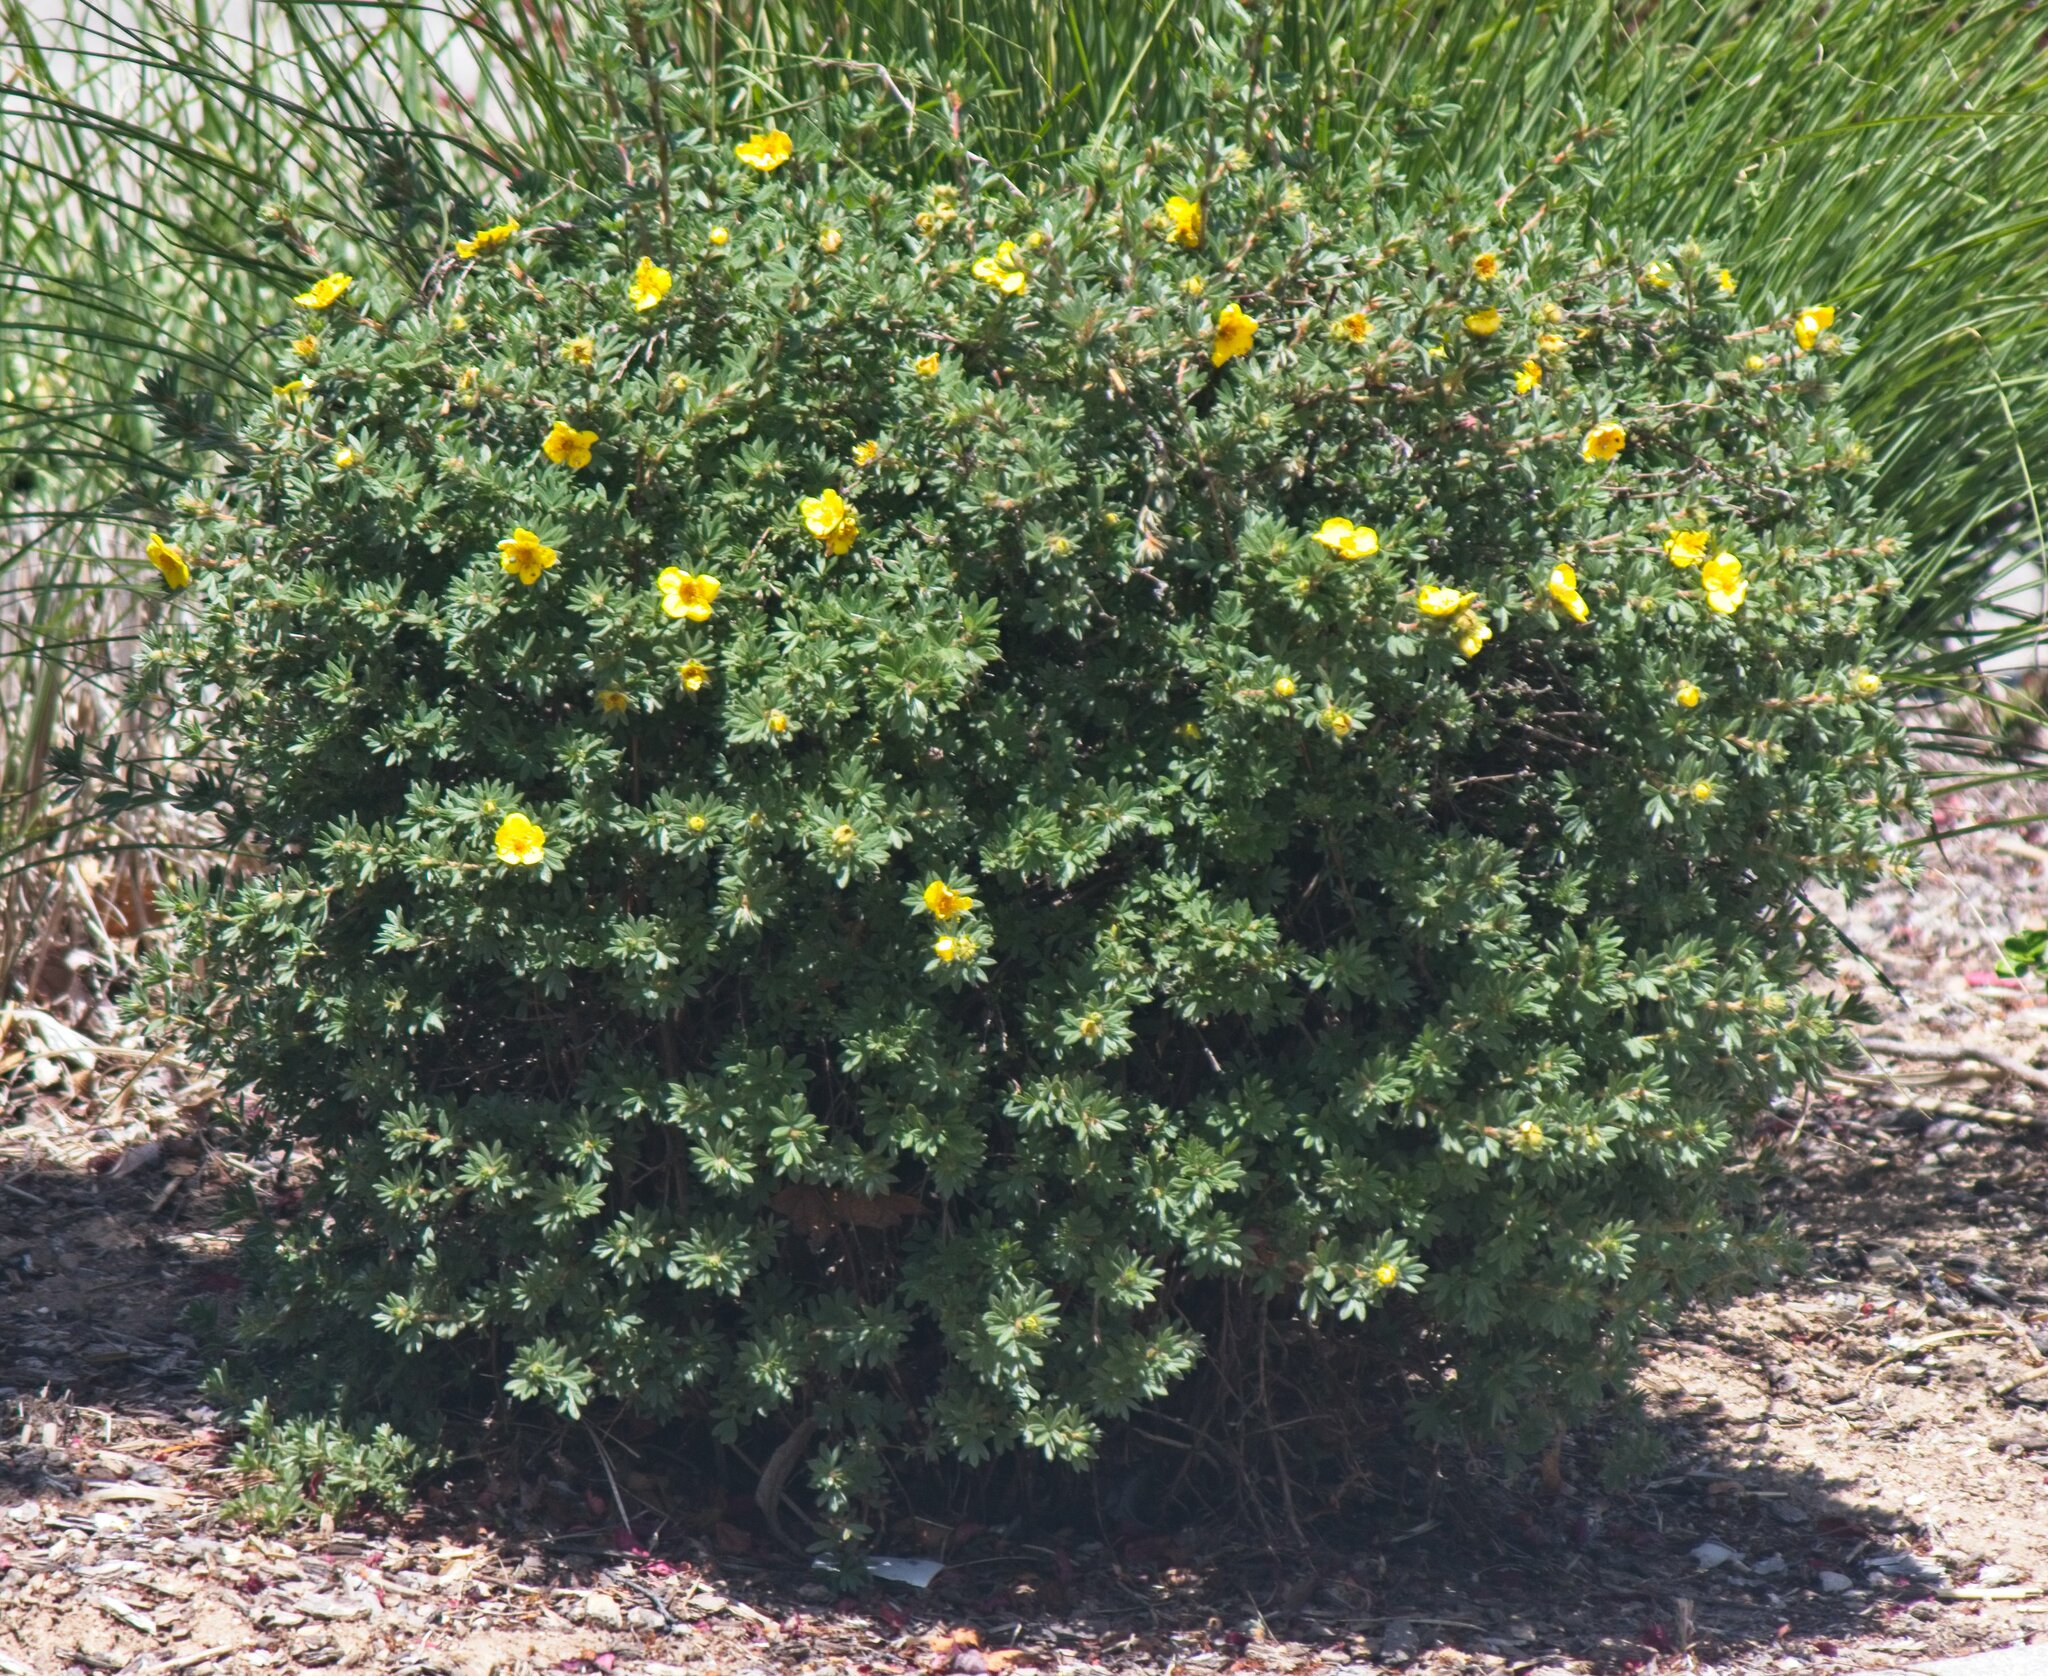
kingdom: Plantae
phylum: Tracheophyta
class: Magnoliopsida
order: Rosales
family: Rosaceae
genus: Dasiphora
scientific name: Dasiphora fruticosa
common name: Shrubby cinquefoil
